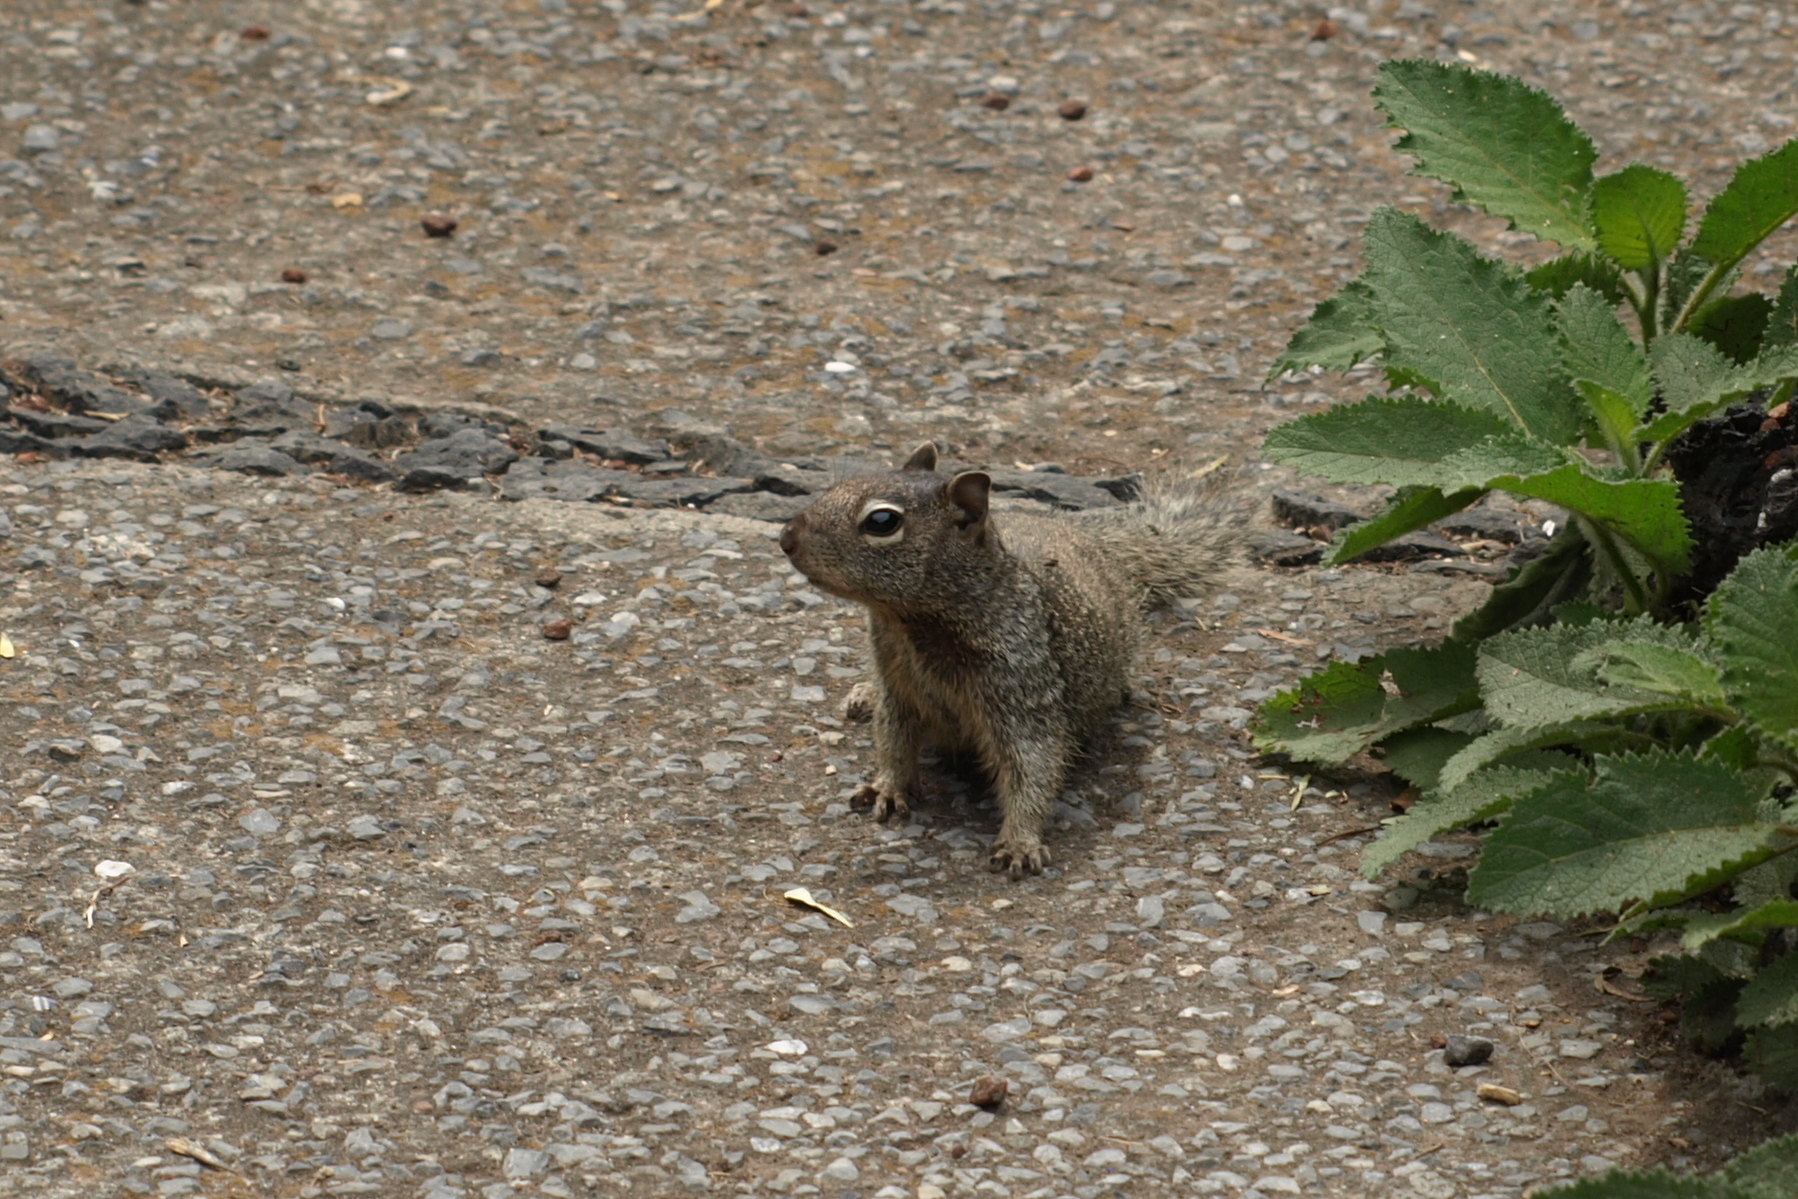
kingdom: Animalia
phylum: Chordata
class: Mammalia
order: Rodentia
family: Sciuridae
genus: Otospermophilus
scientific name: Otospermophilus variegatus
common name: Rock squirrel
